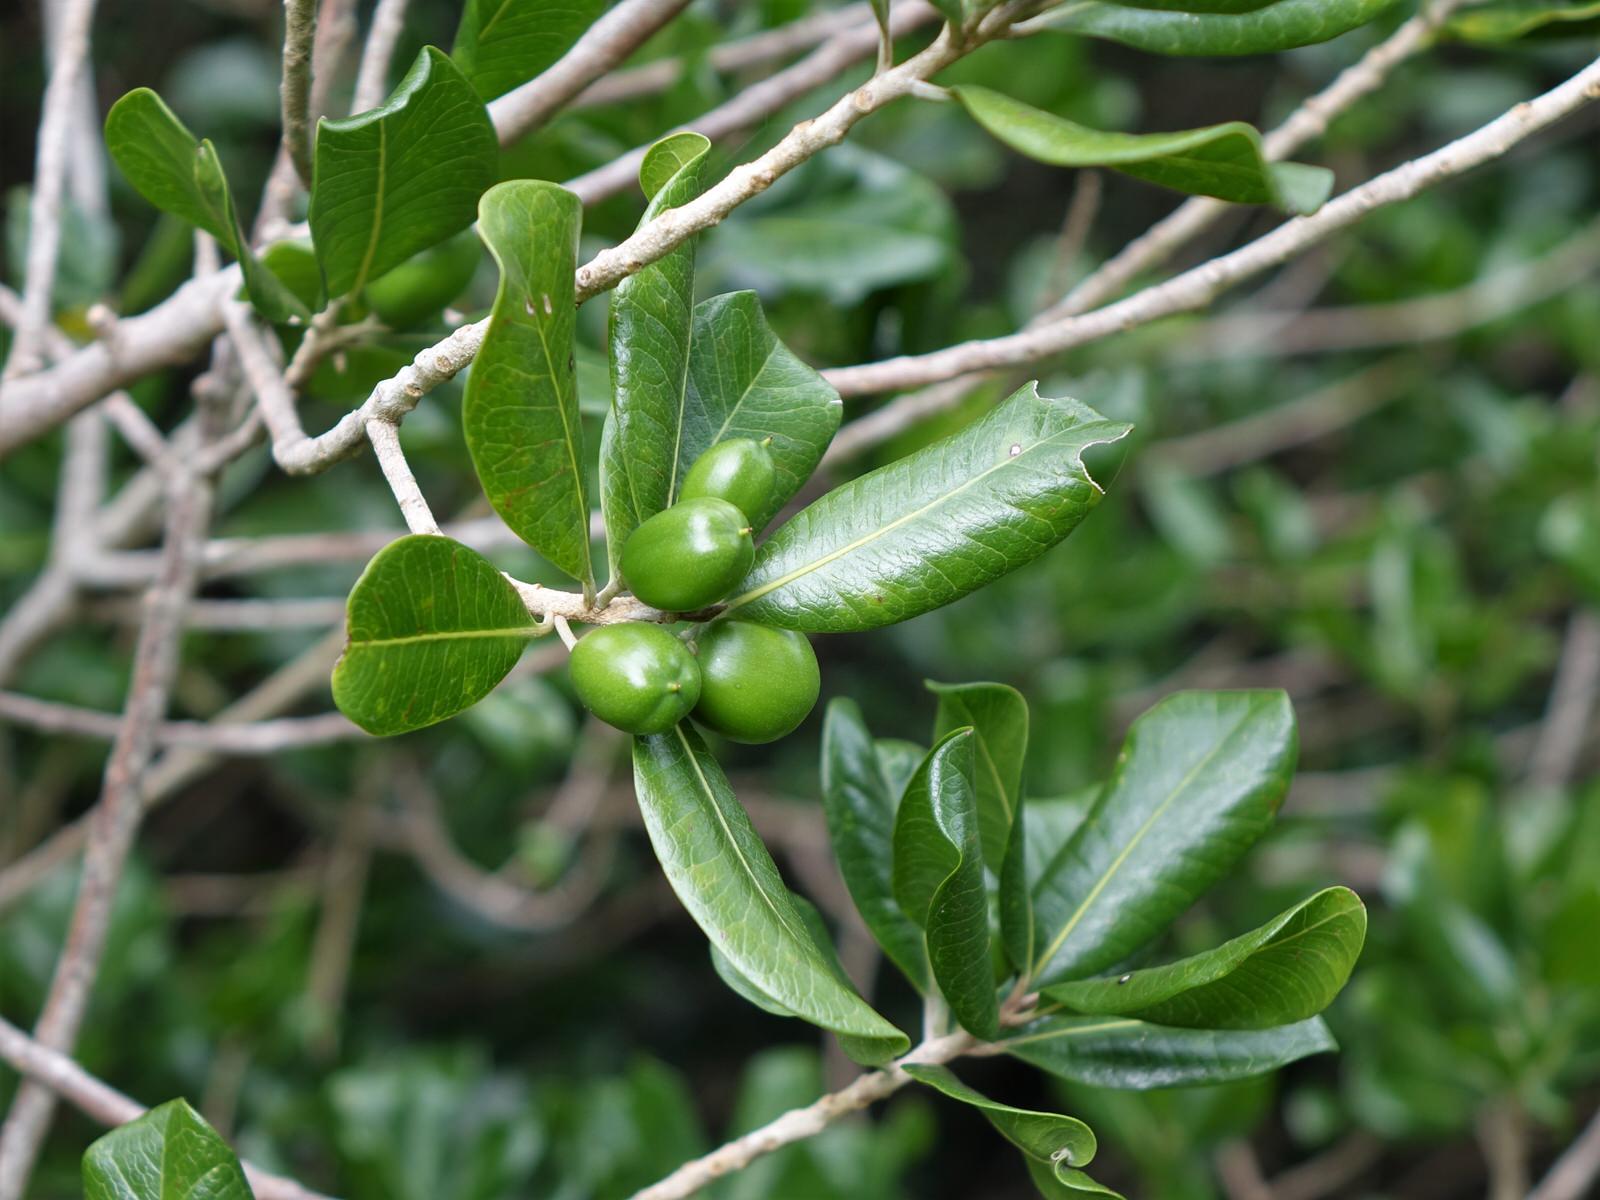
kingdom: Plantae
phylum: Tracheophyta
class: Magnoliopsida
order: Ericales
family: Sapotaceae
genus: Planchonella
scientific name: Planchonella costata
